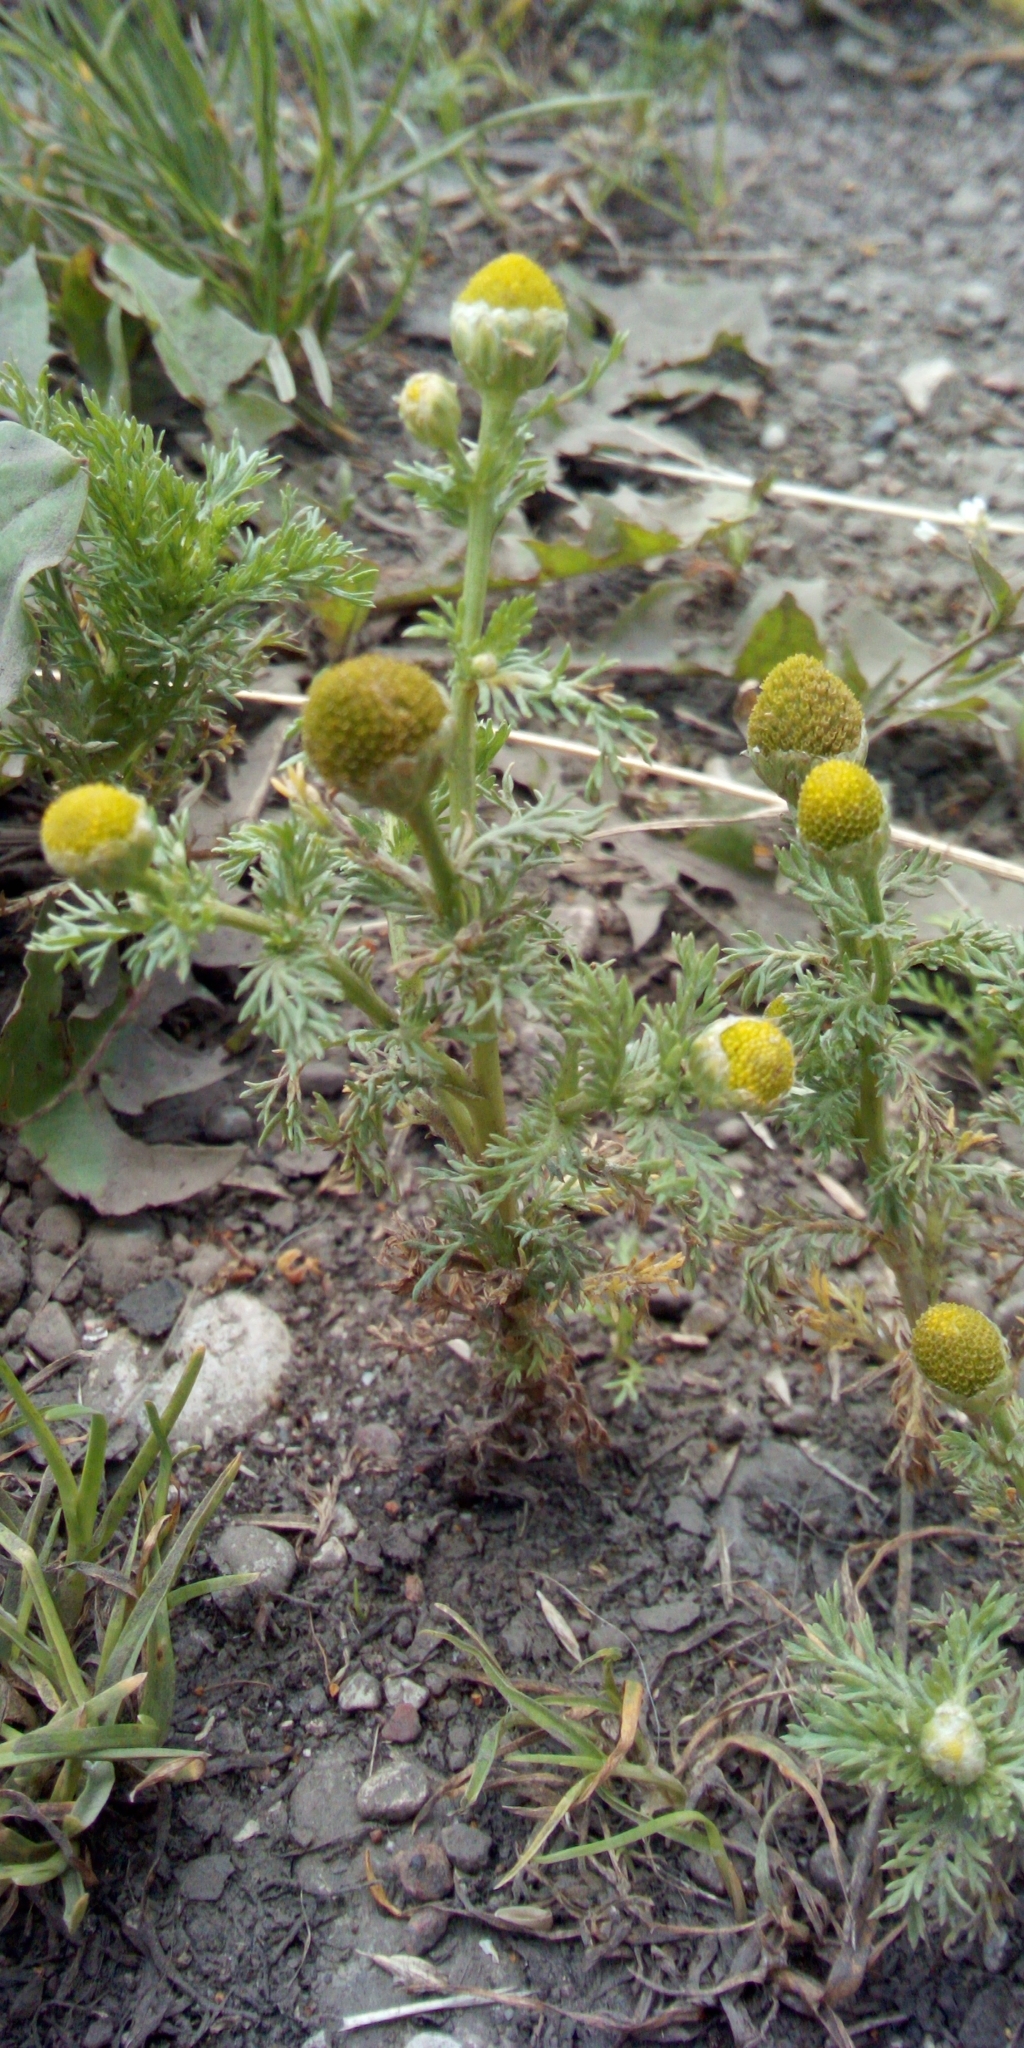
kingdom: Plantae
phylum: Tracheophyta
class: Magnoliopsida
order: Asterales
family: Asteraceae
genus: Matricaria
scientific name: Matricaria discoidea
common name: Disc mayweed
